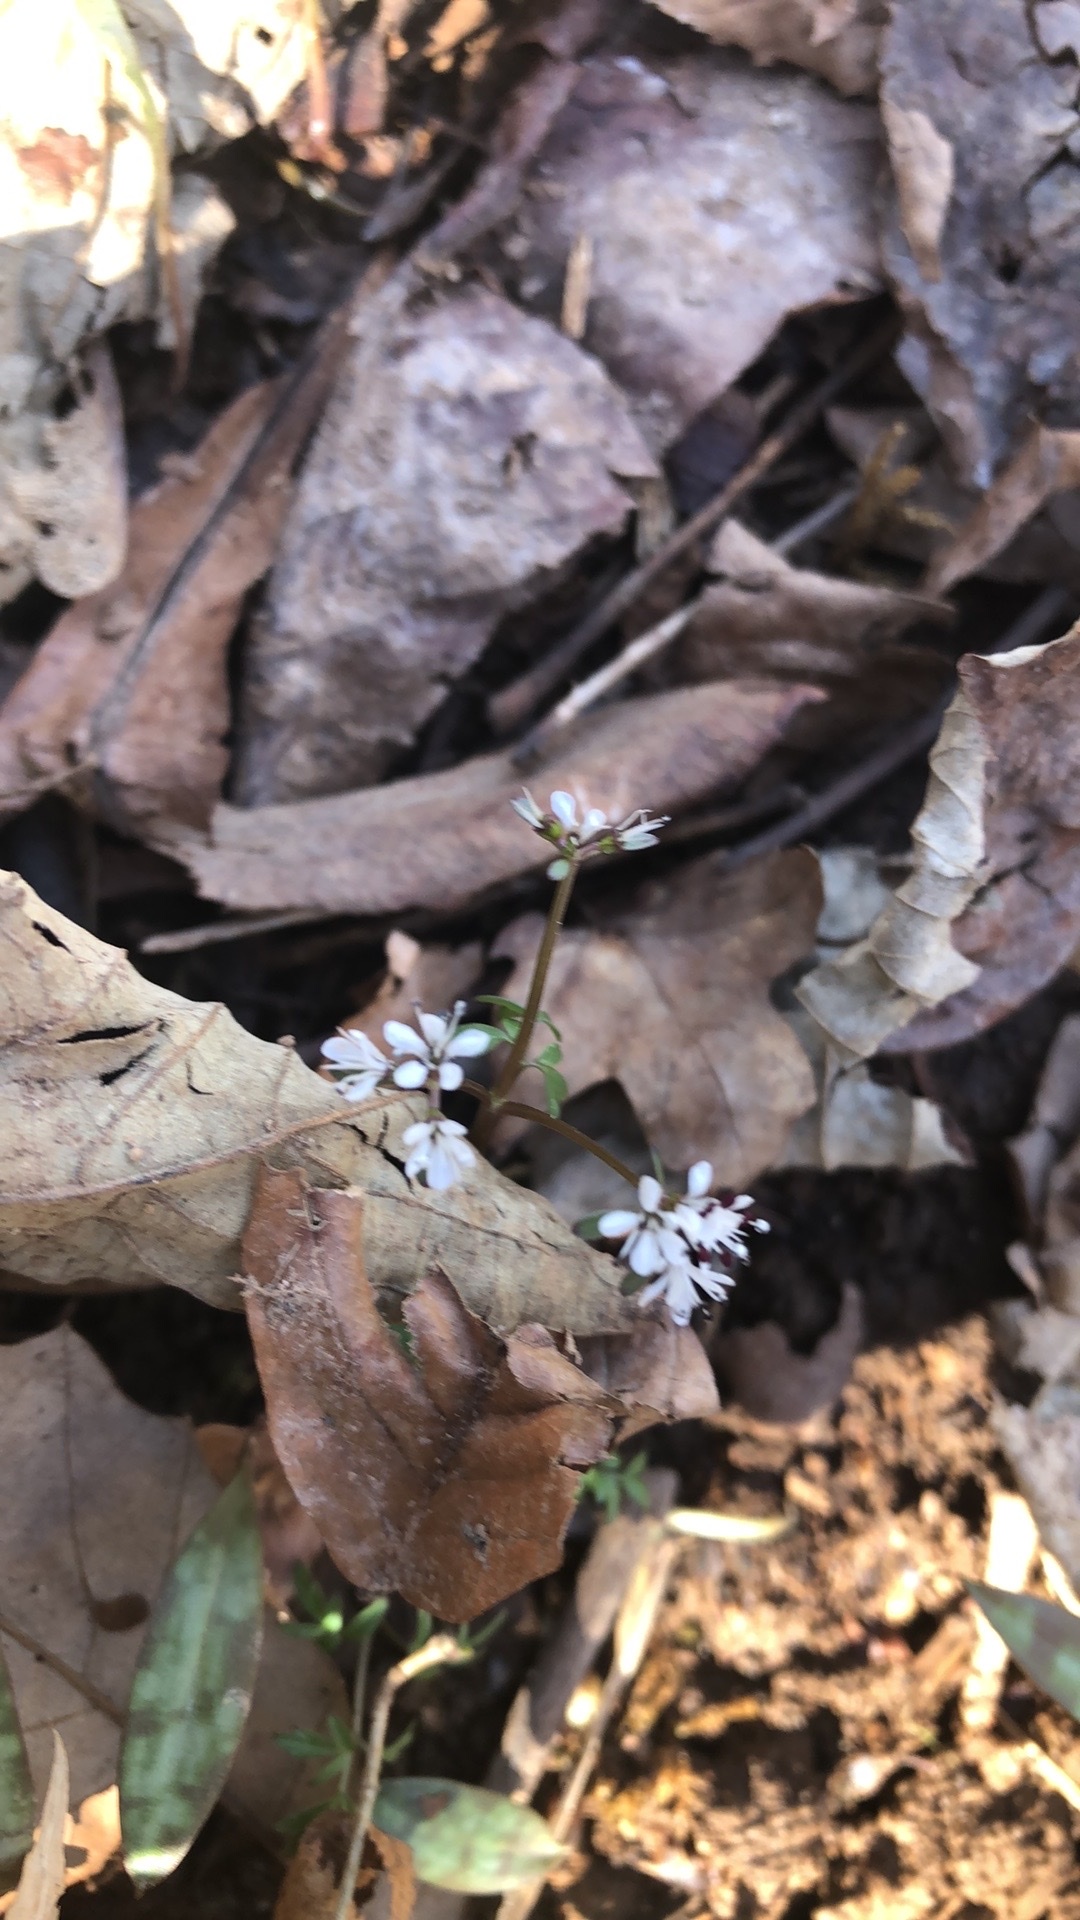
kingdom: Plantae
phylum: Tracheophyta
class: Magnoliopsida
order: Apiales
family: Apiaceae
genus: Erigenia
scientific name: Erigenia bulbosa
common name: Pepper-and-salt
